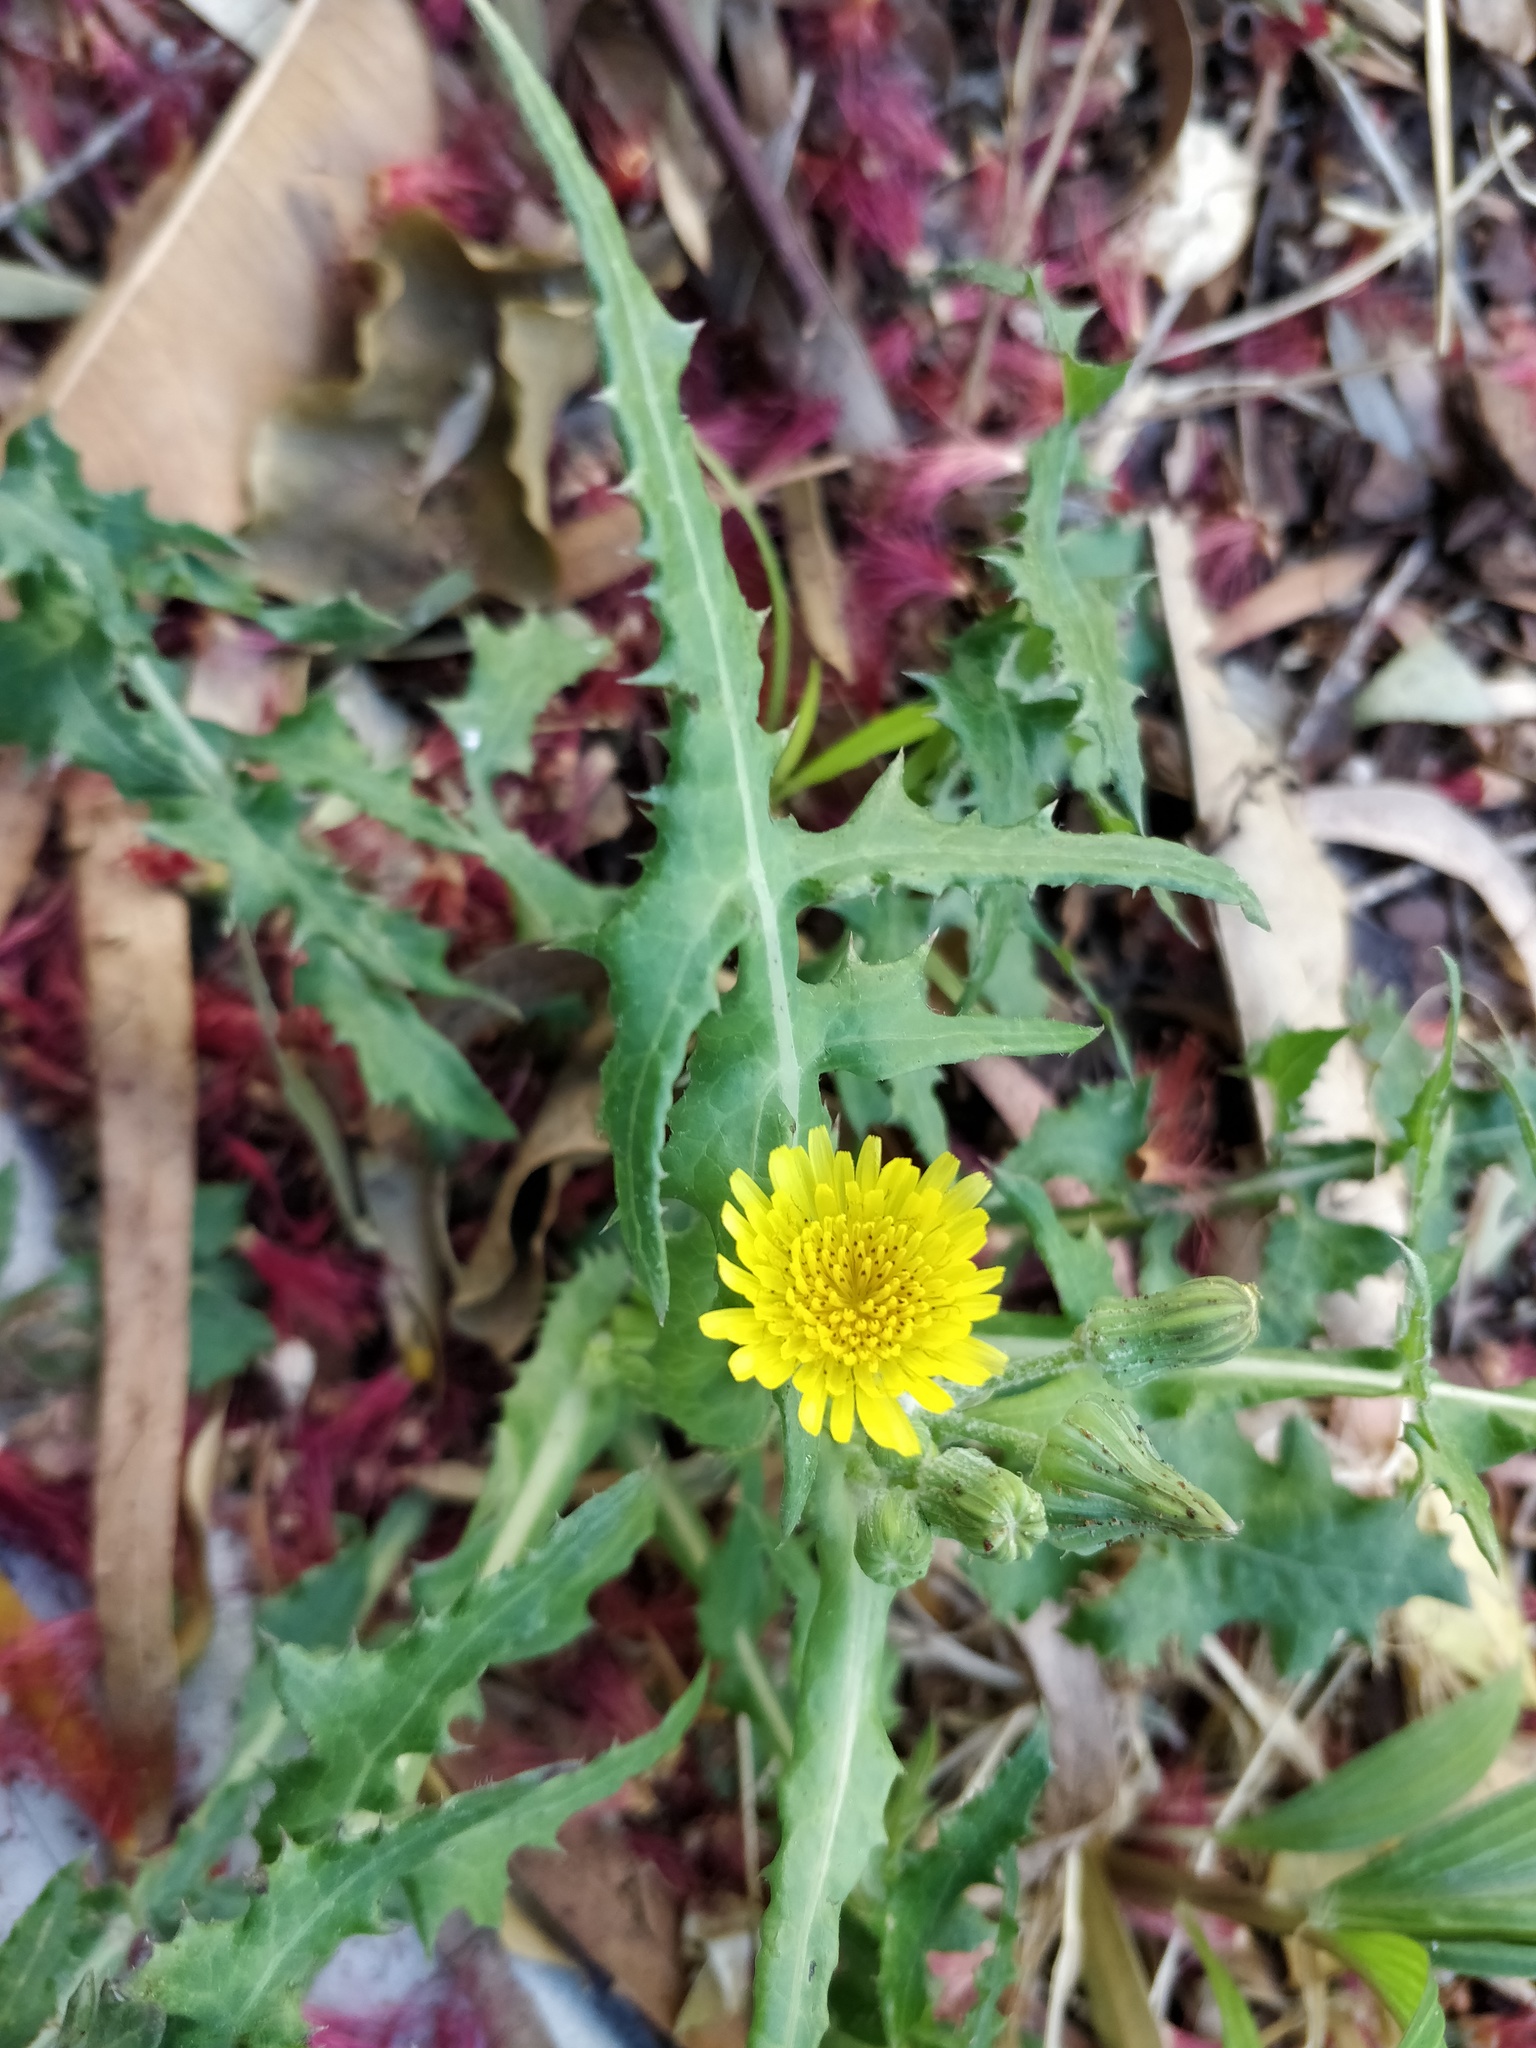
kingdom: Plantae
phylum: Tracheophyta
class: Magnoliopsida
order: Asterales
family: Asteraceae
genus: Sonchus
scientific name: Sonchus oleraceus
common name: Common sowthistle
